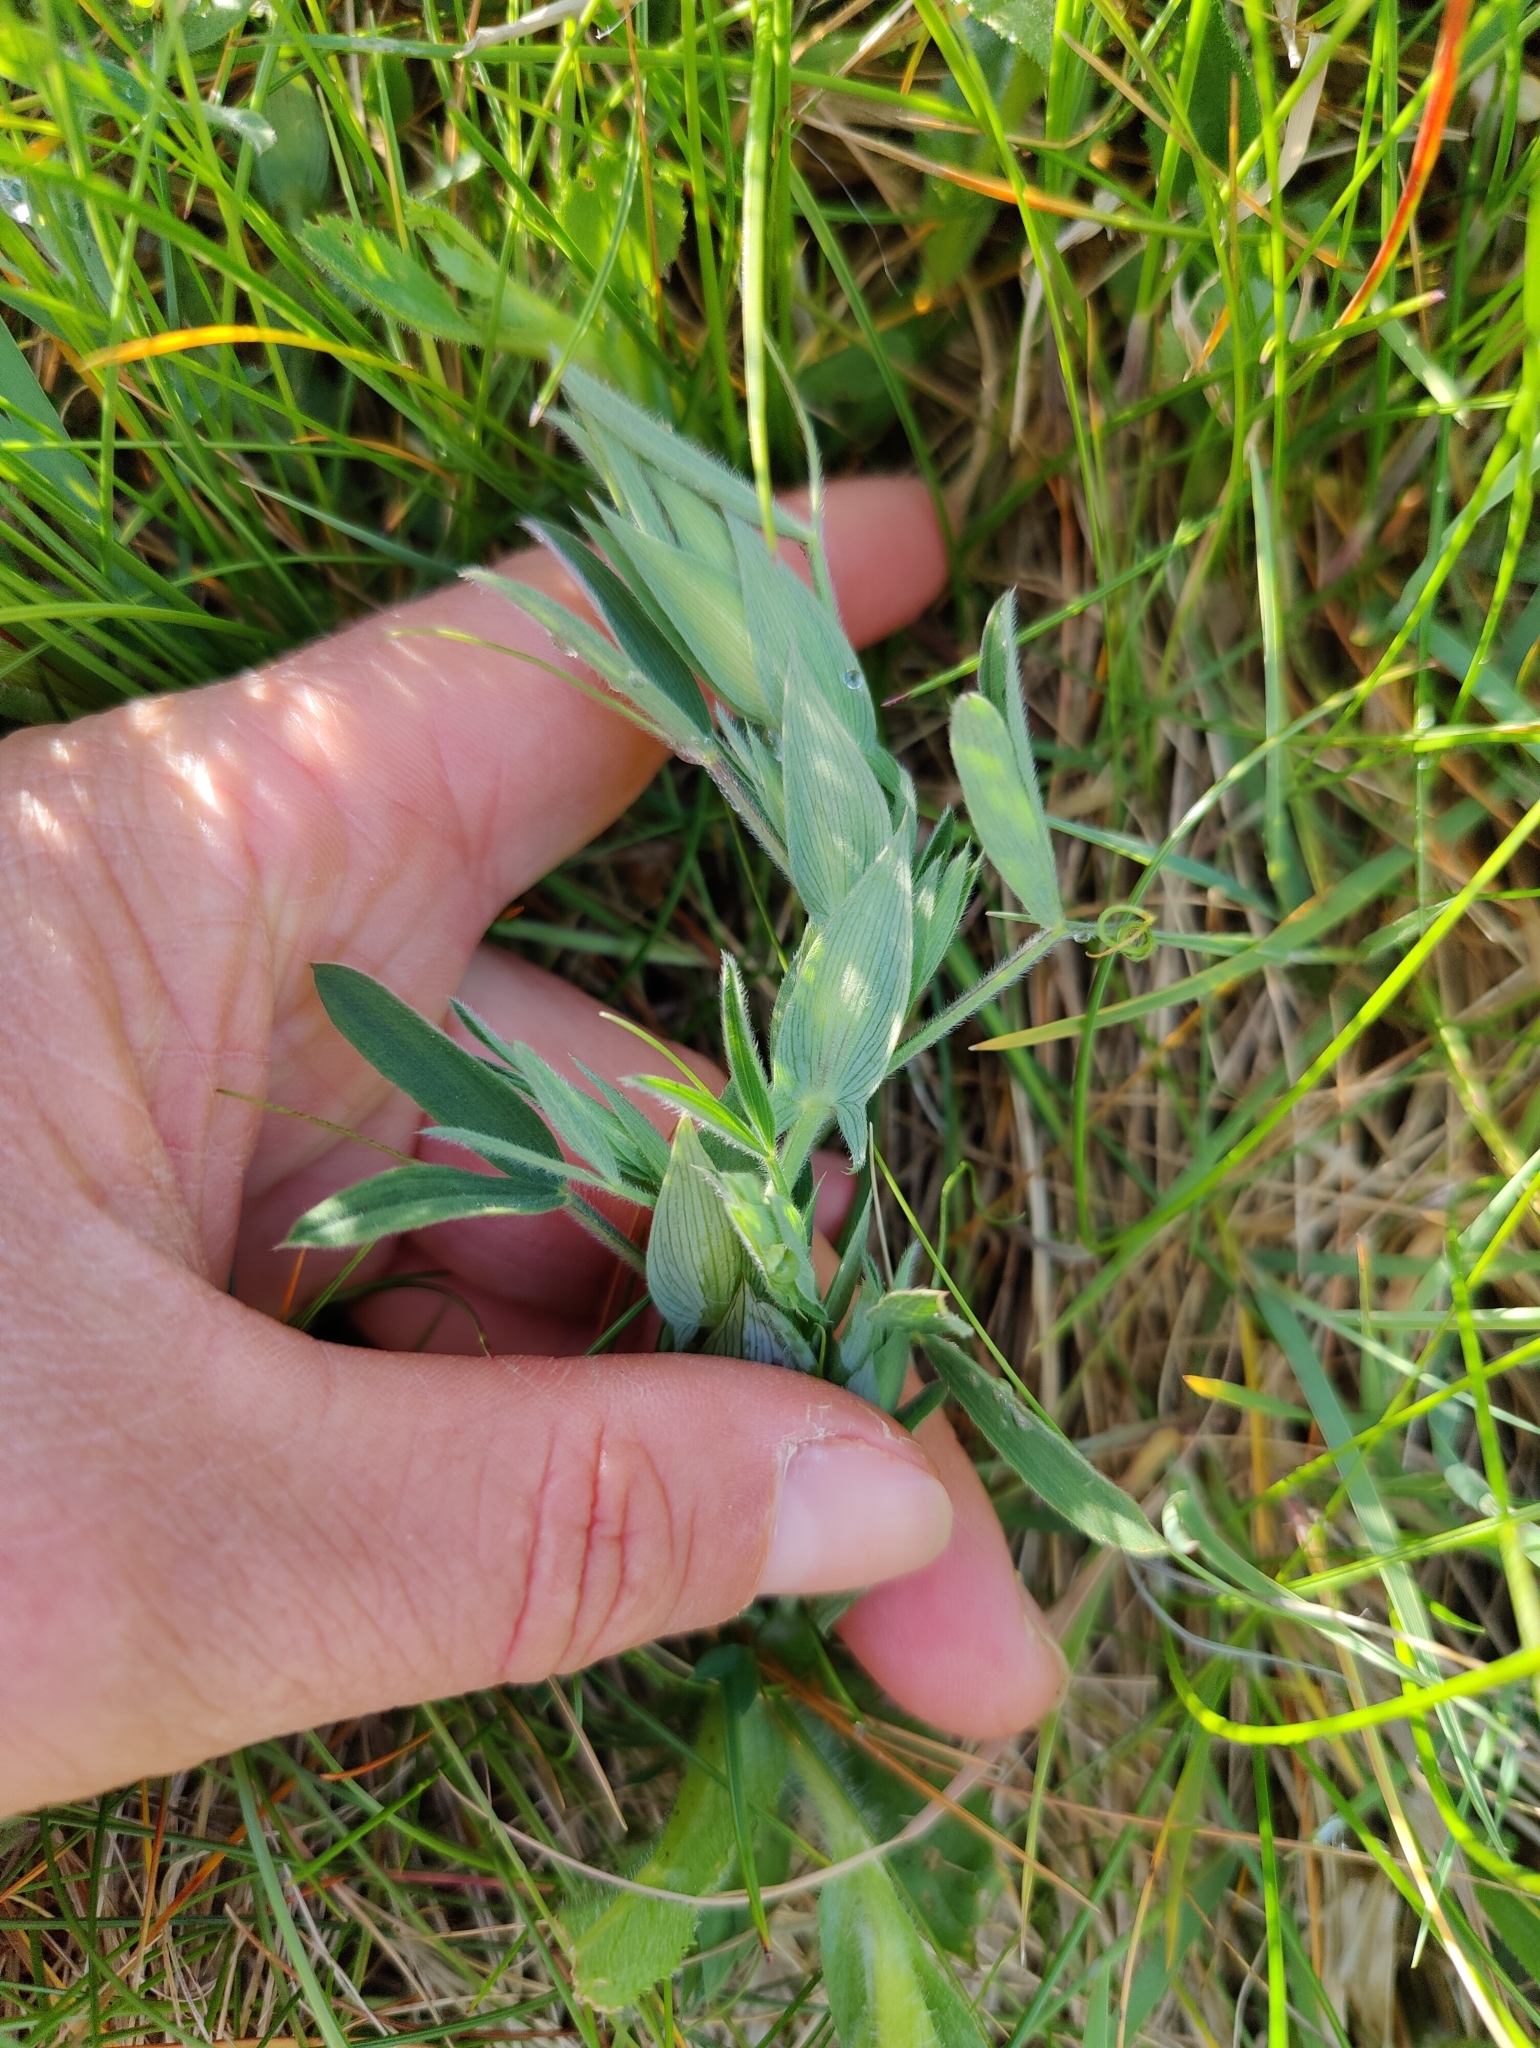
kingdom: Plantae
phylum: Tracheophyta
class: Magnoliopsida
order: Fabales
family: Fabaceae
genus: Lathyrus
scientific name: Lathyrus pratensis
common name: Meadow vetchling
